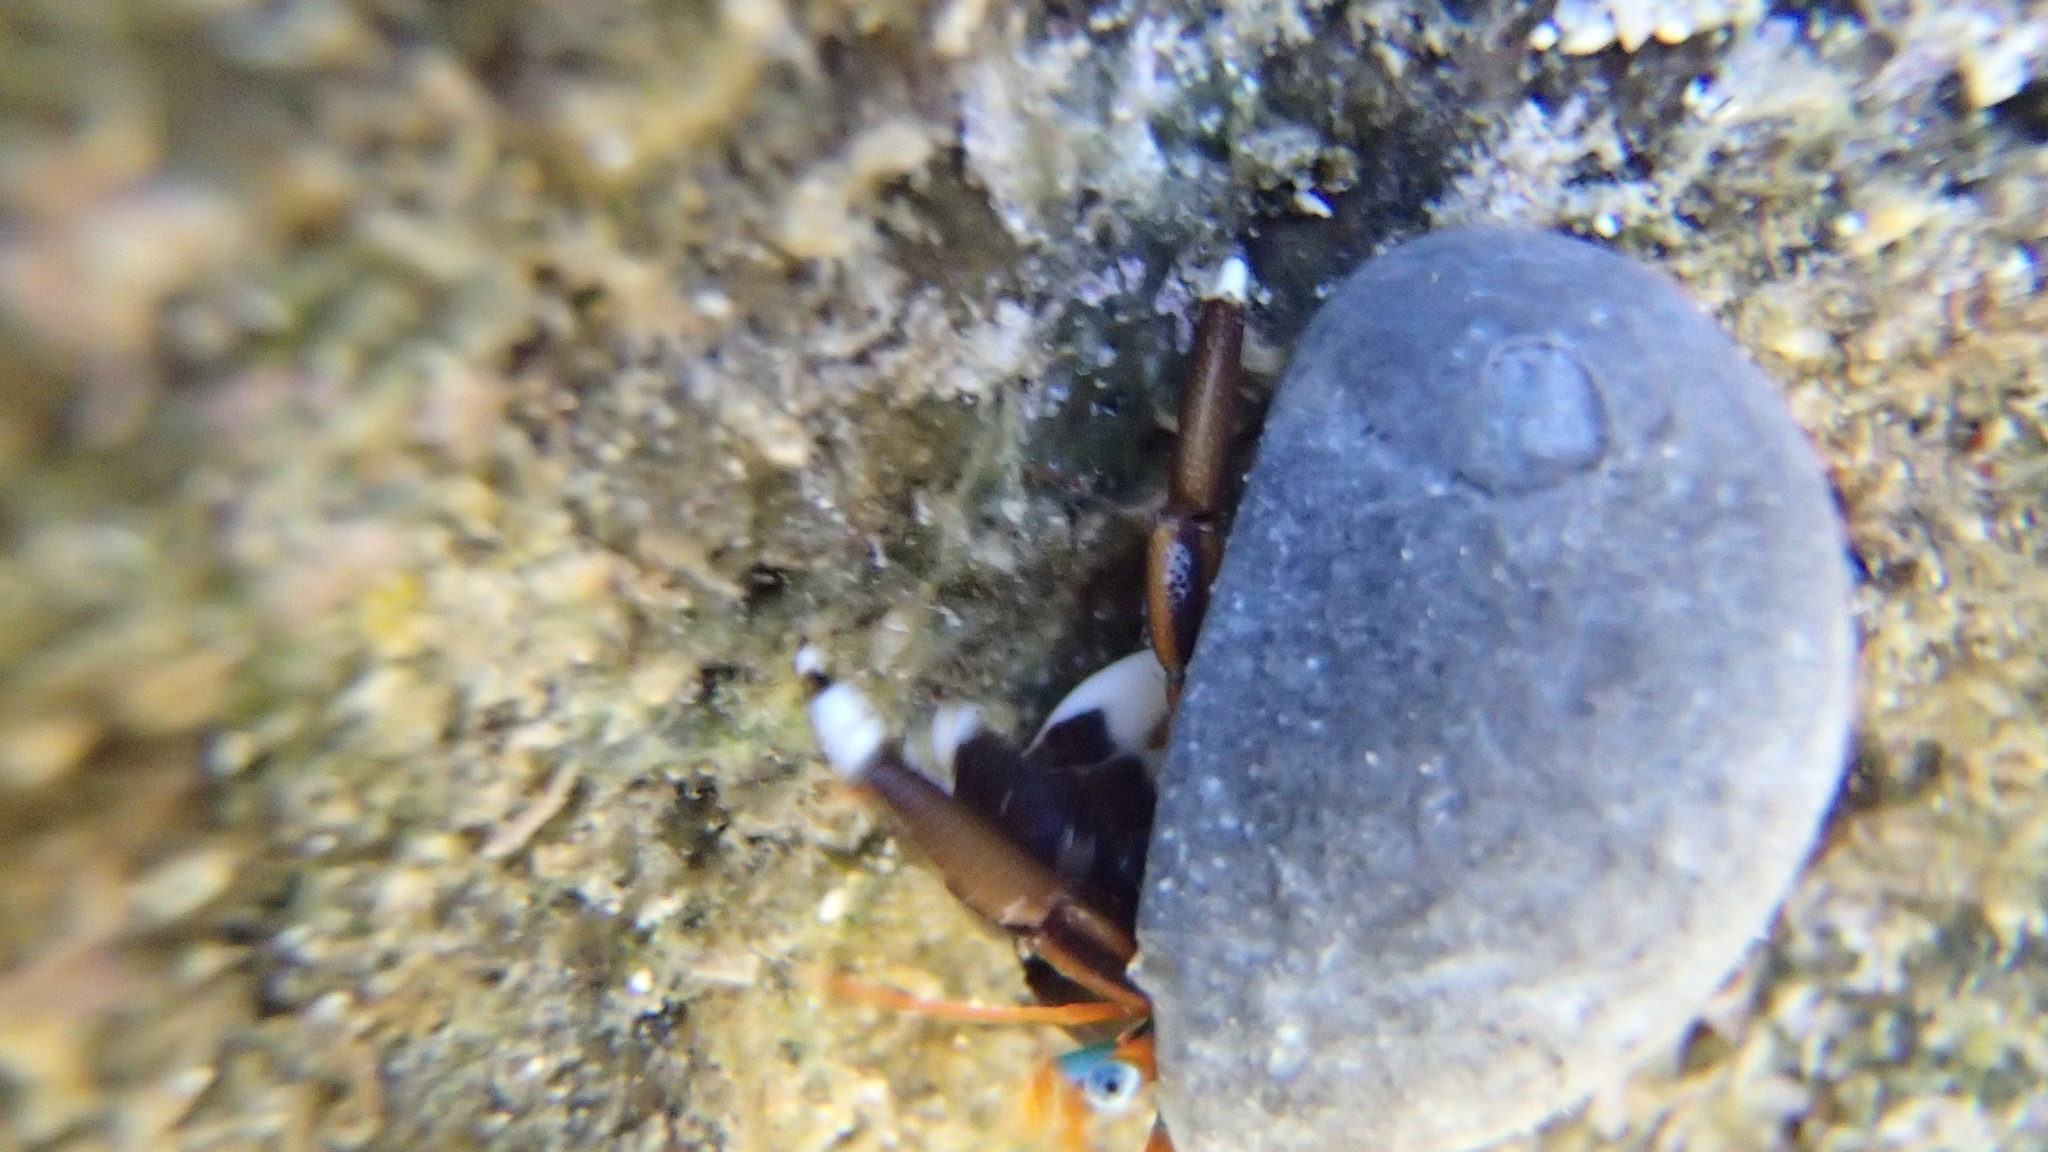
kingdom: Animalia
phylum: Arthropoda
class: Malacostraca
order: Decapoda
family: Diogenidae
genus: Calcinus
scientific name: Calcinus laevimanus
